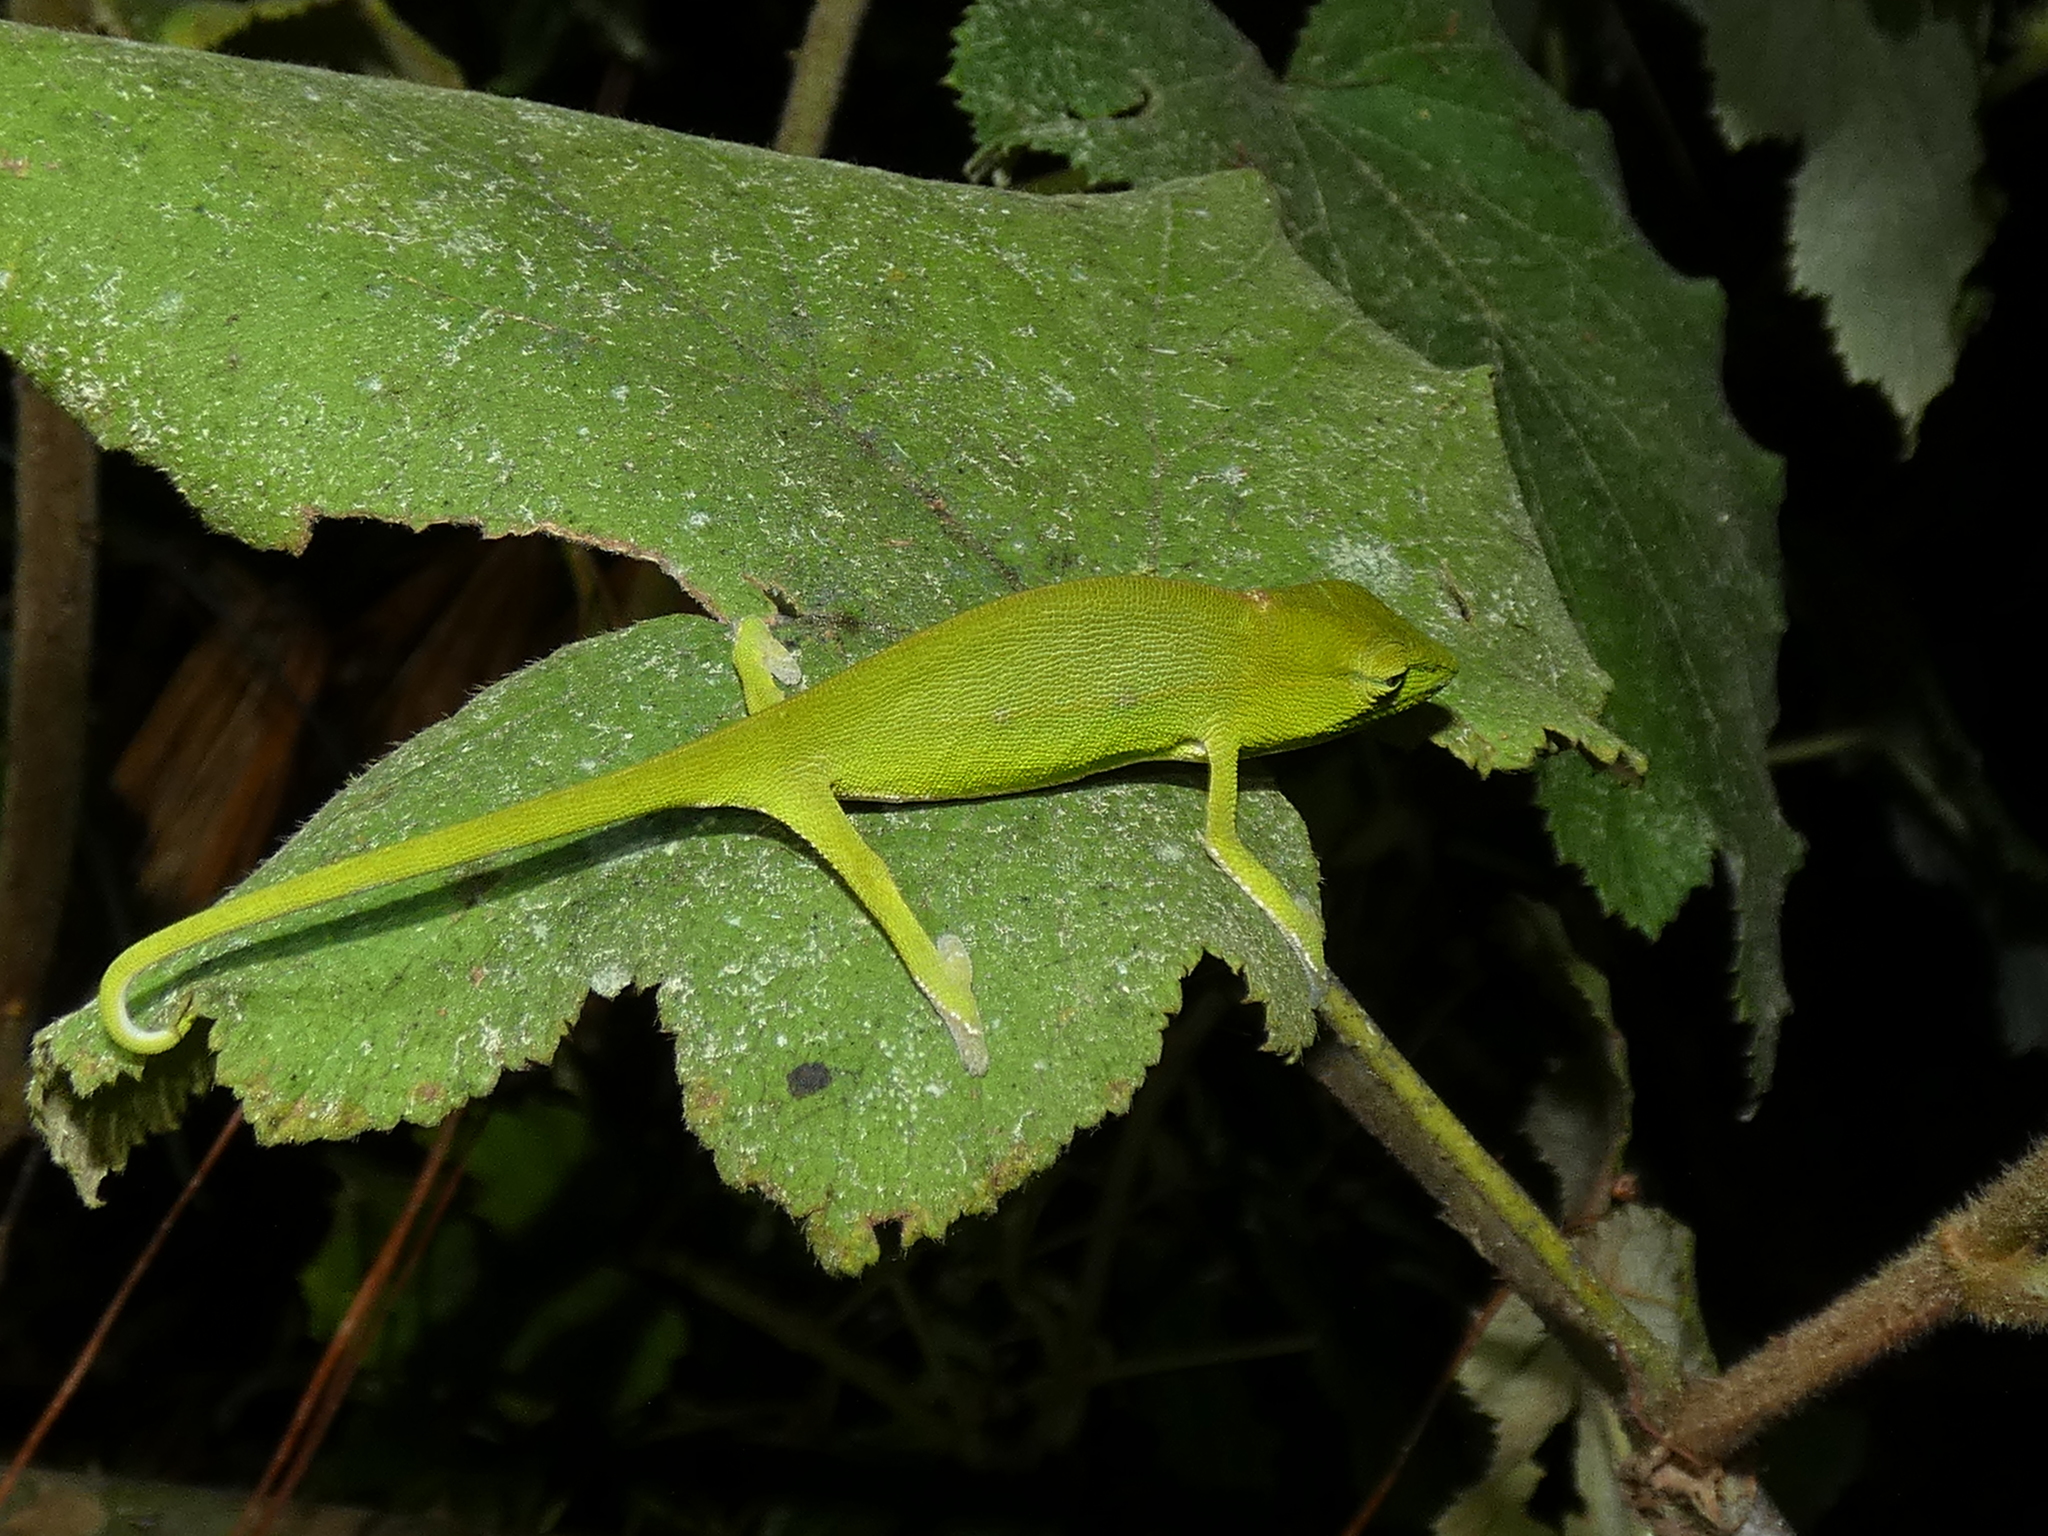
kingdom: Animalia
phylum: Chordata
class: Squamata
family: Chamaeleonidae
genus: Calumma
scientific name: Calumma gastrotaenia
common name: Short-nosed chameleon
